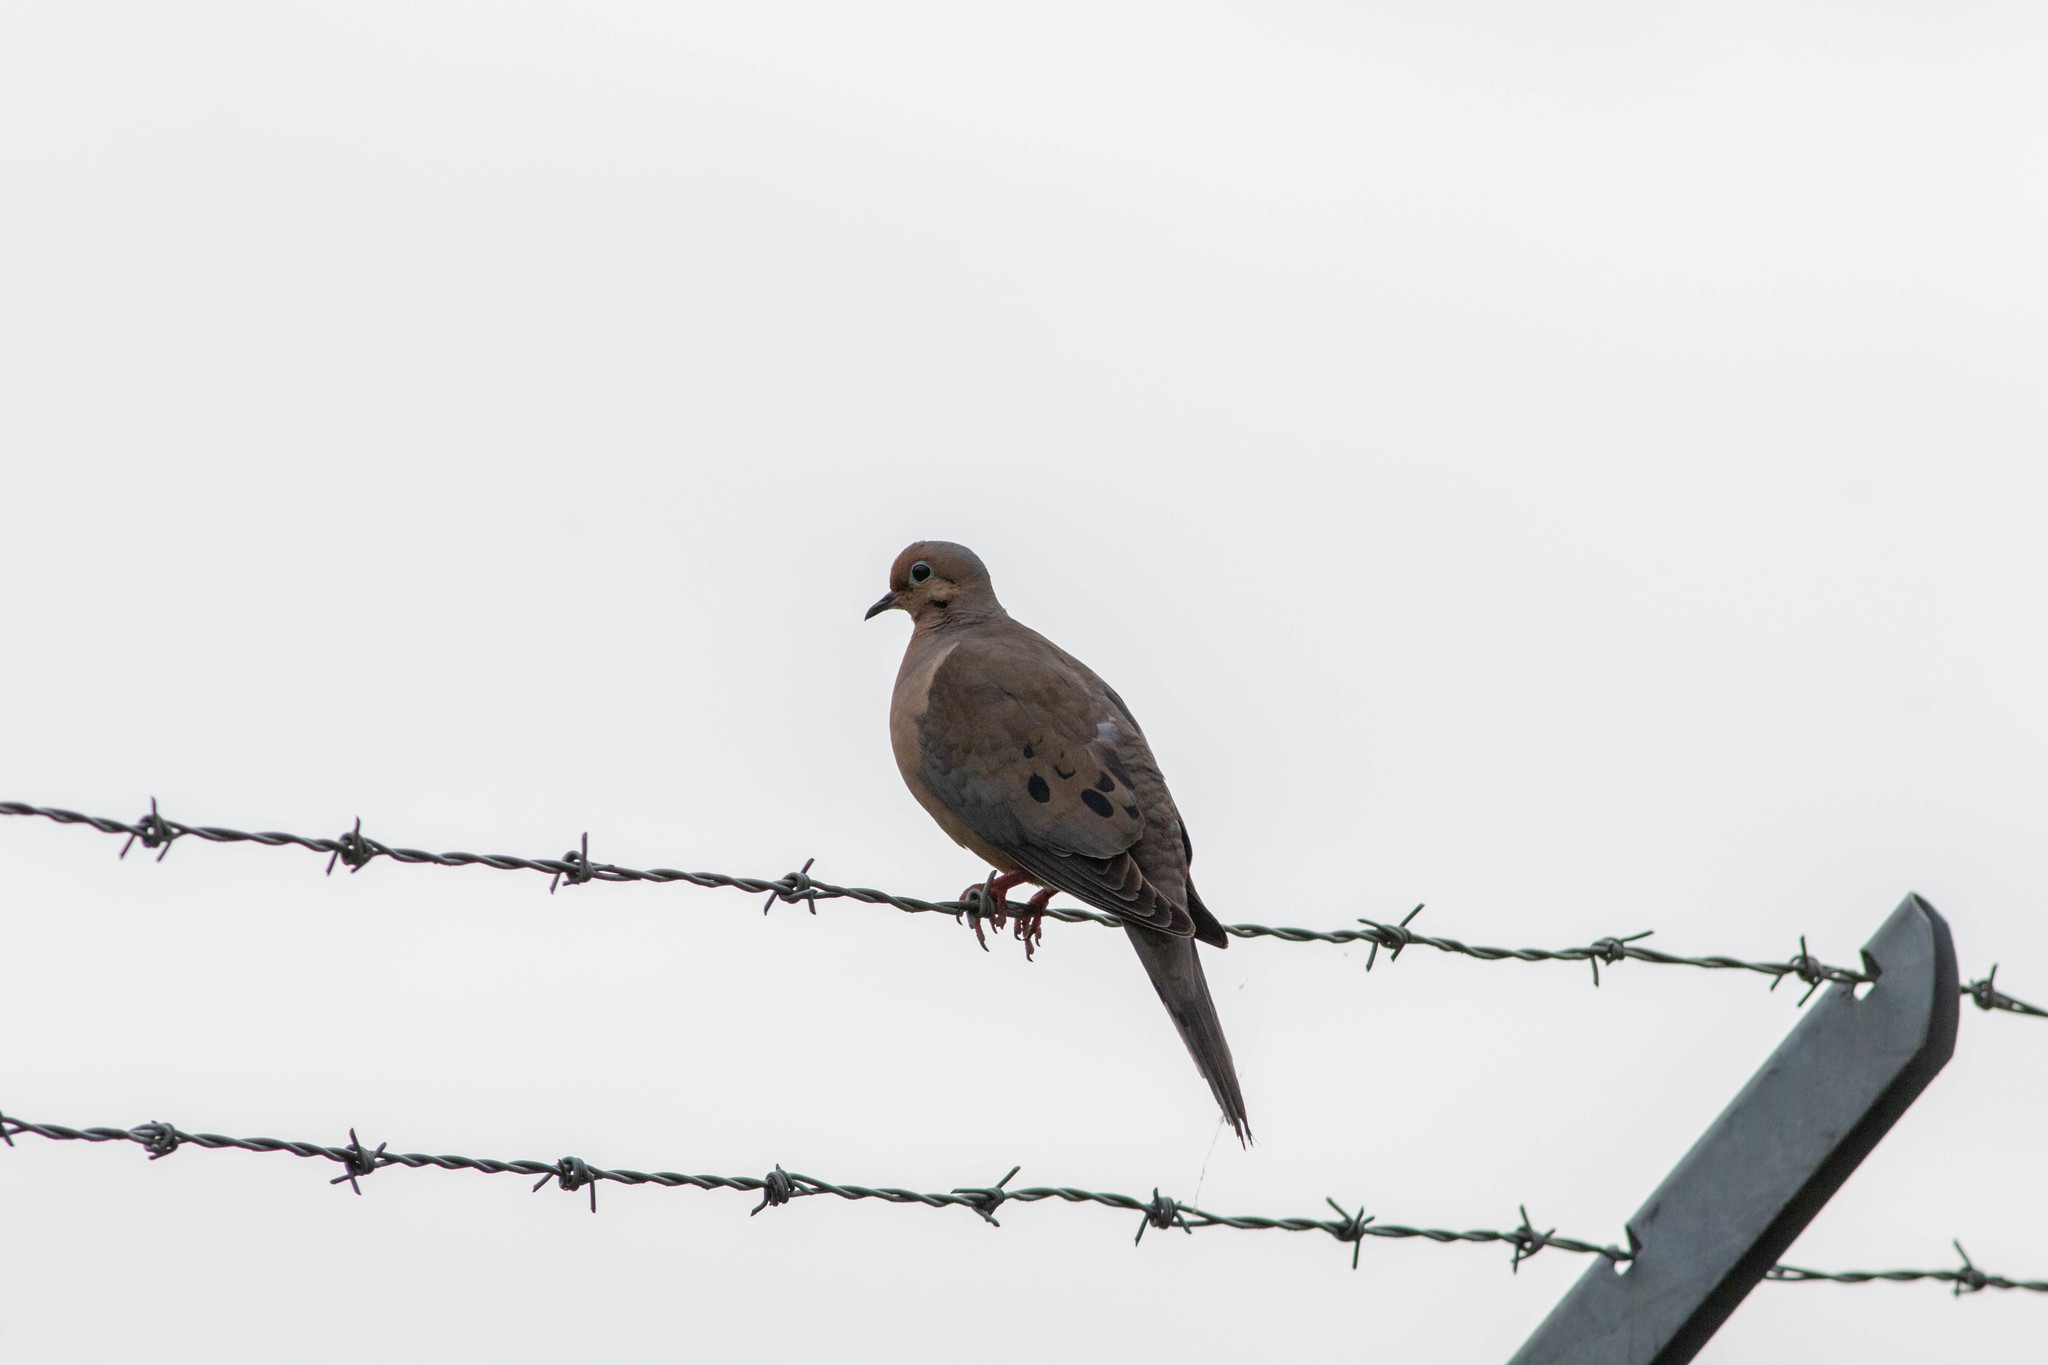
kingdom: Animalia
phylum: Chordata
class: Aves
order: Columbiformes
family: Columbidae
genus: Zenaida
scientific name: Zenaida macroura
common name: Mourning dove
